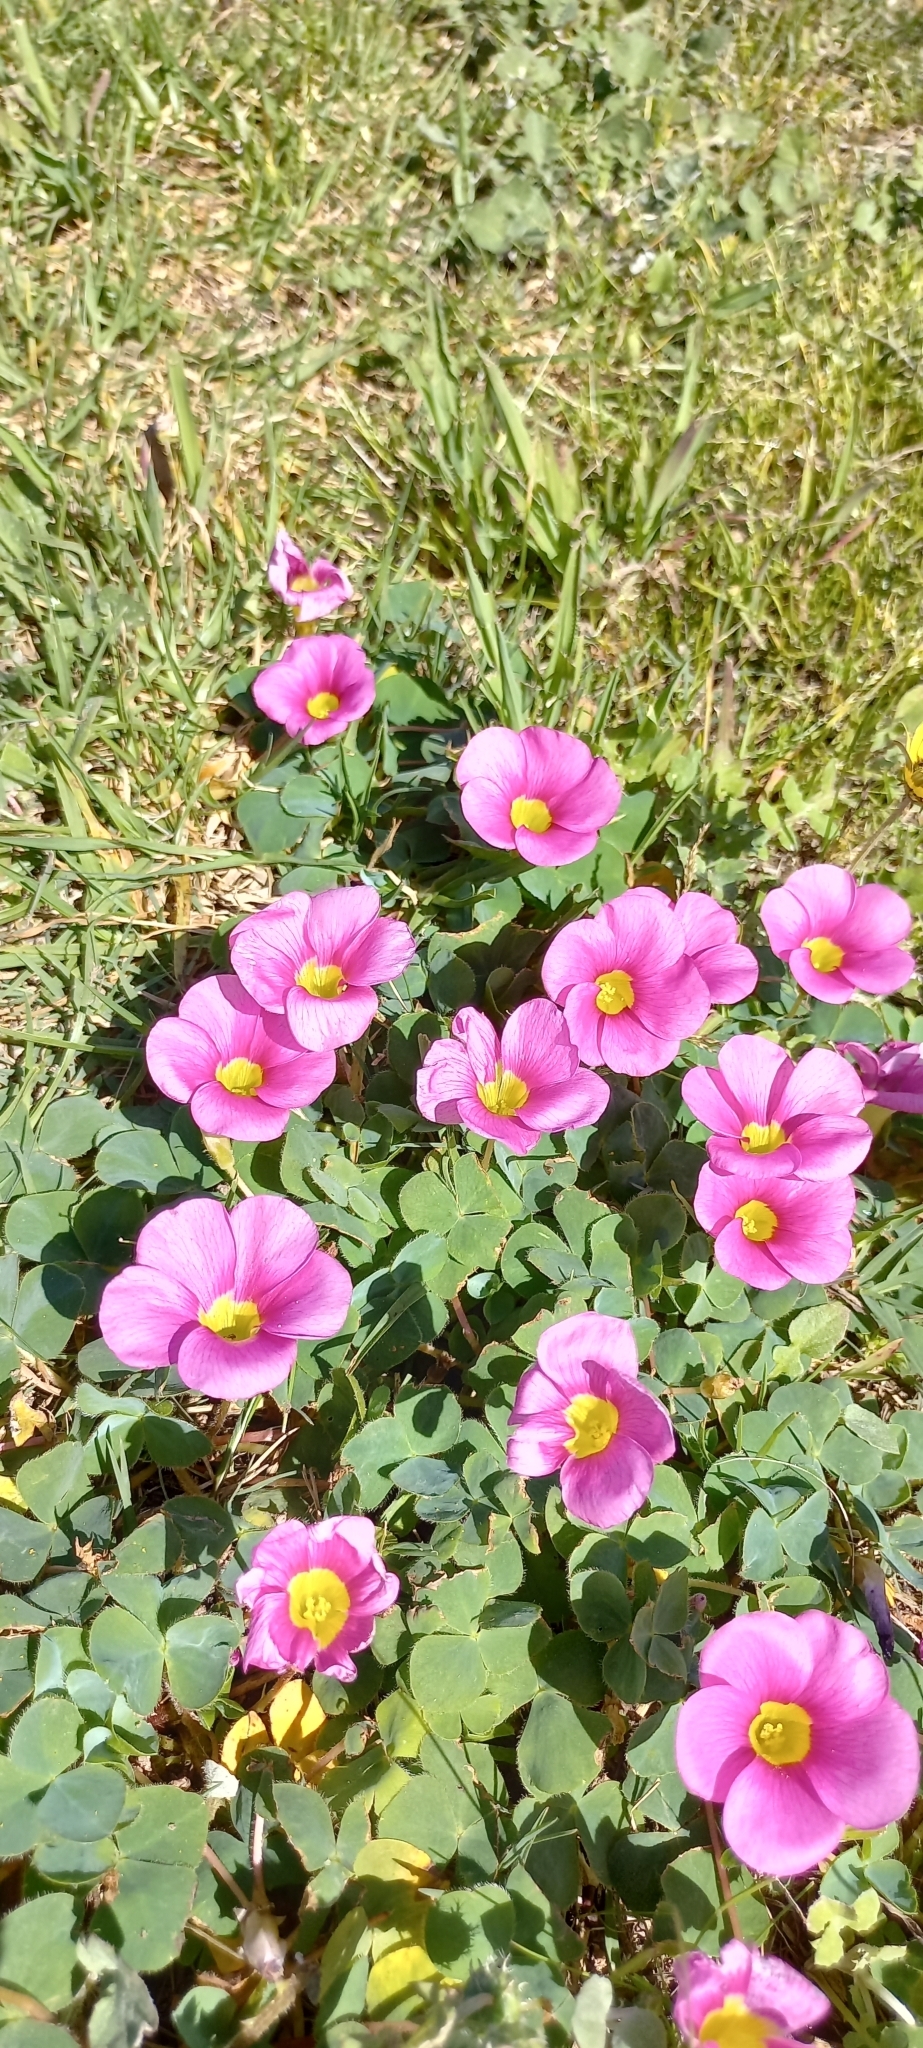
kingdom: Plantae
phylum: Tracheophyta
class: Magnoliopsida
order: Oxalidales
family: Oxalidaceae
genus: Oxalis
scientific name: Oxalis purpurea
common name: Purple woodsorrel
